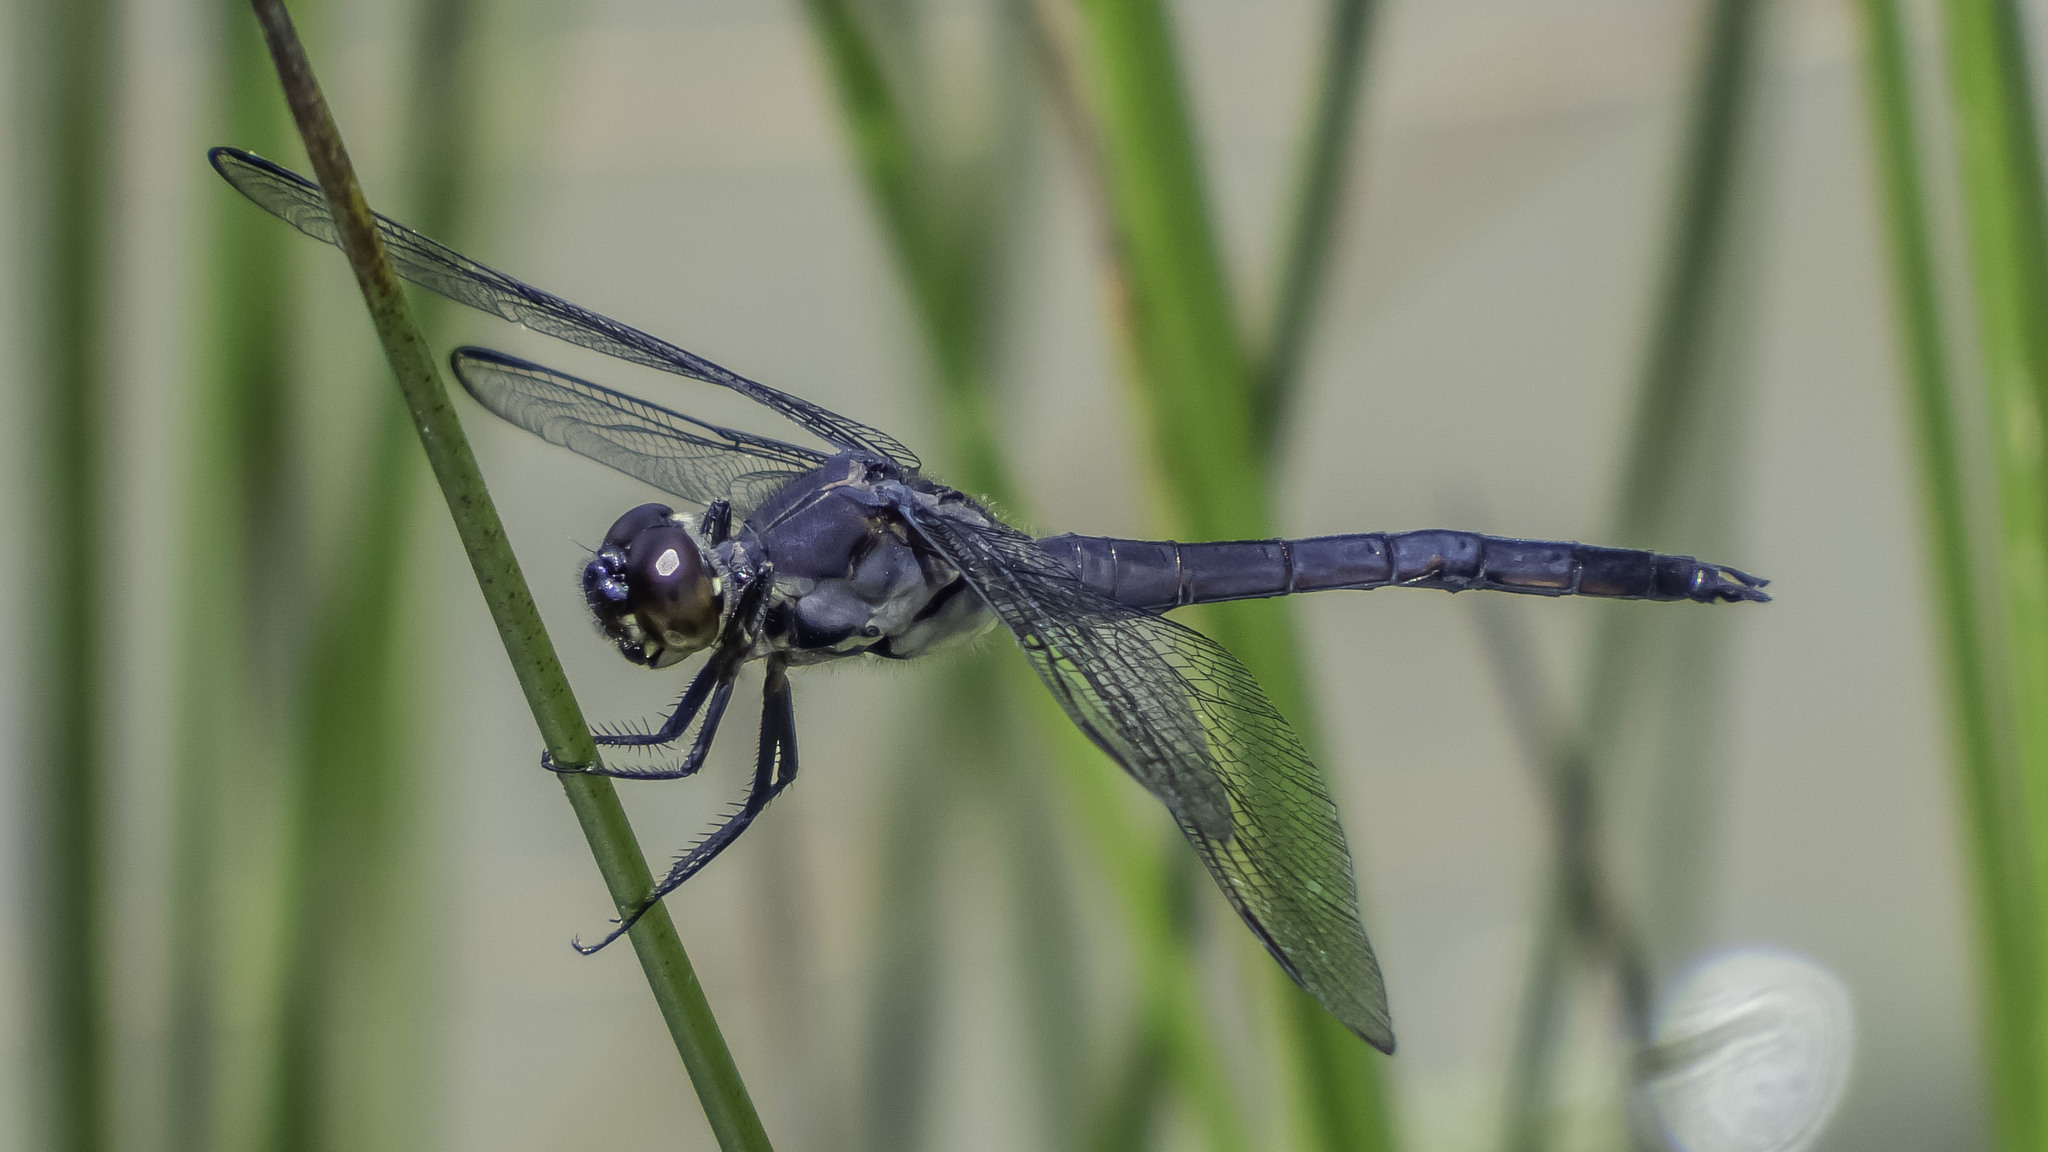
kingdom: Animalia
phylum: Arthropoda
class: Insecta
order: Odonata
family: Libellulidae
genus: Libellula
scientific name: Libellula incesta
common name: Slaty skimmer
